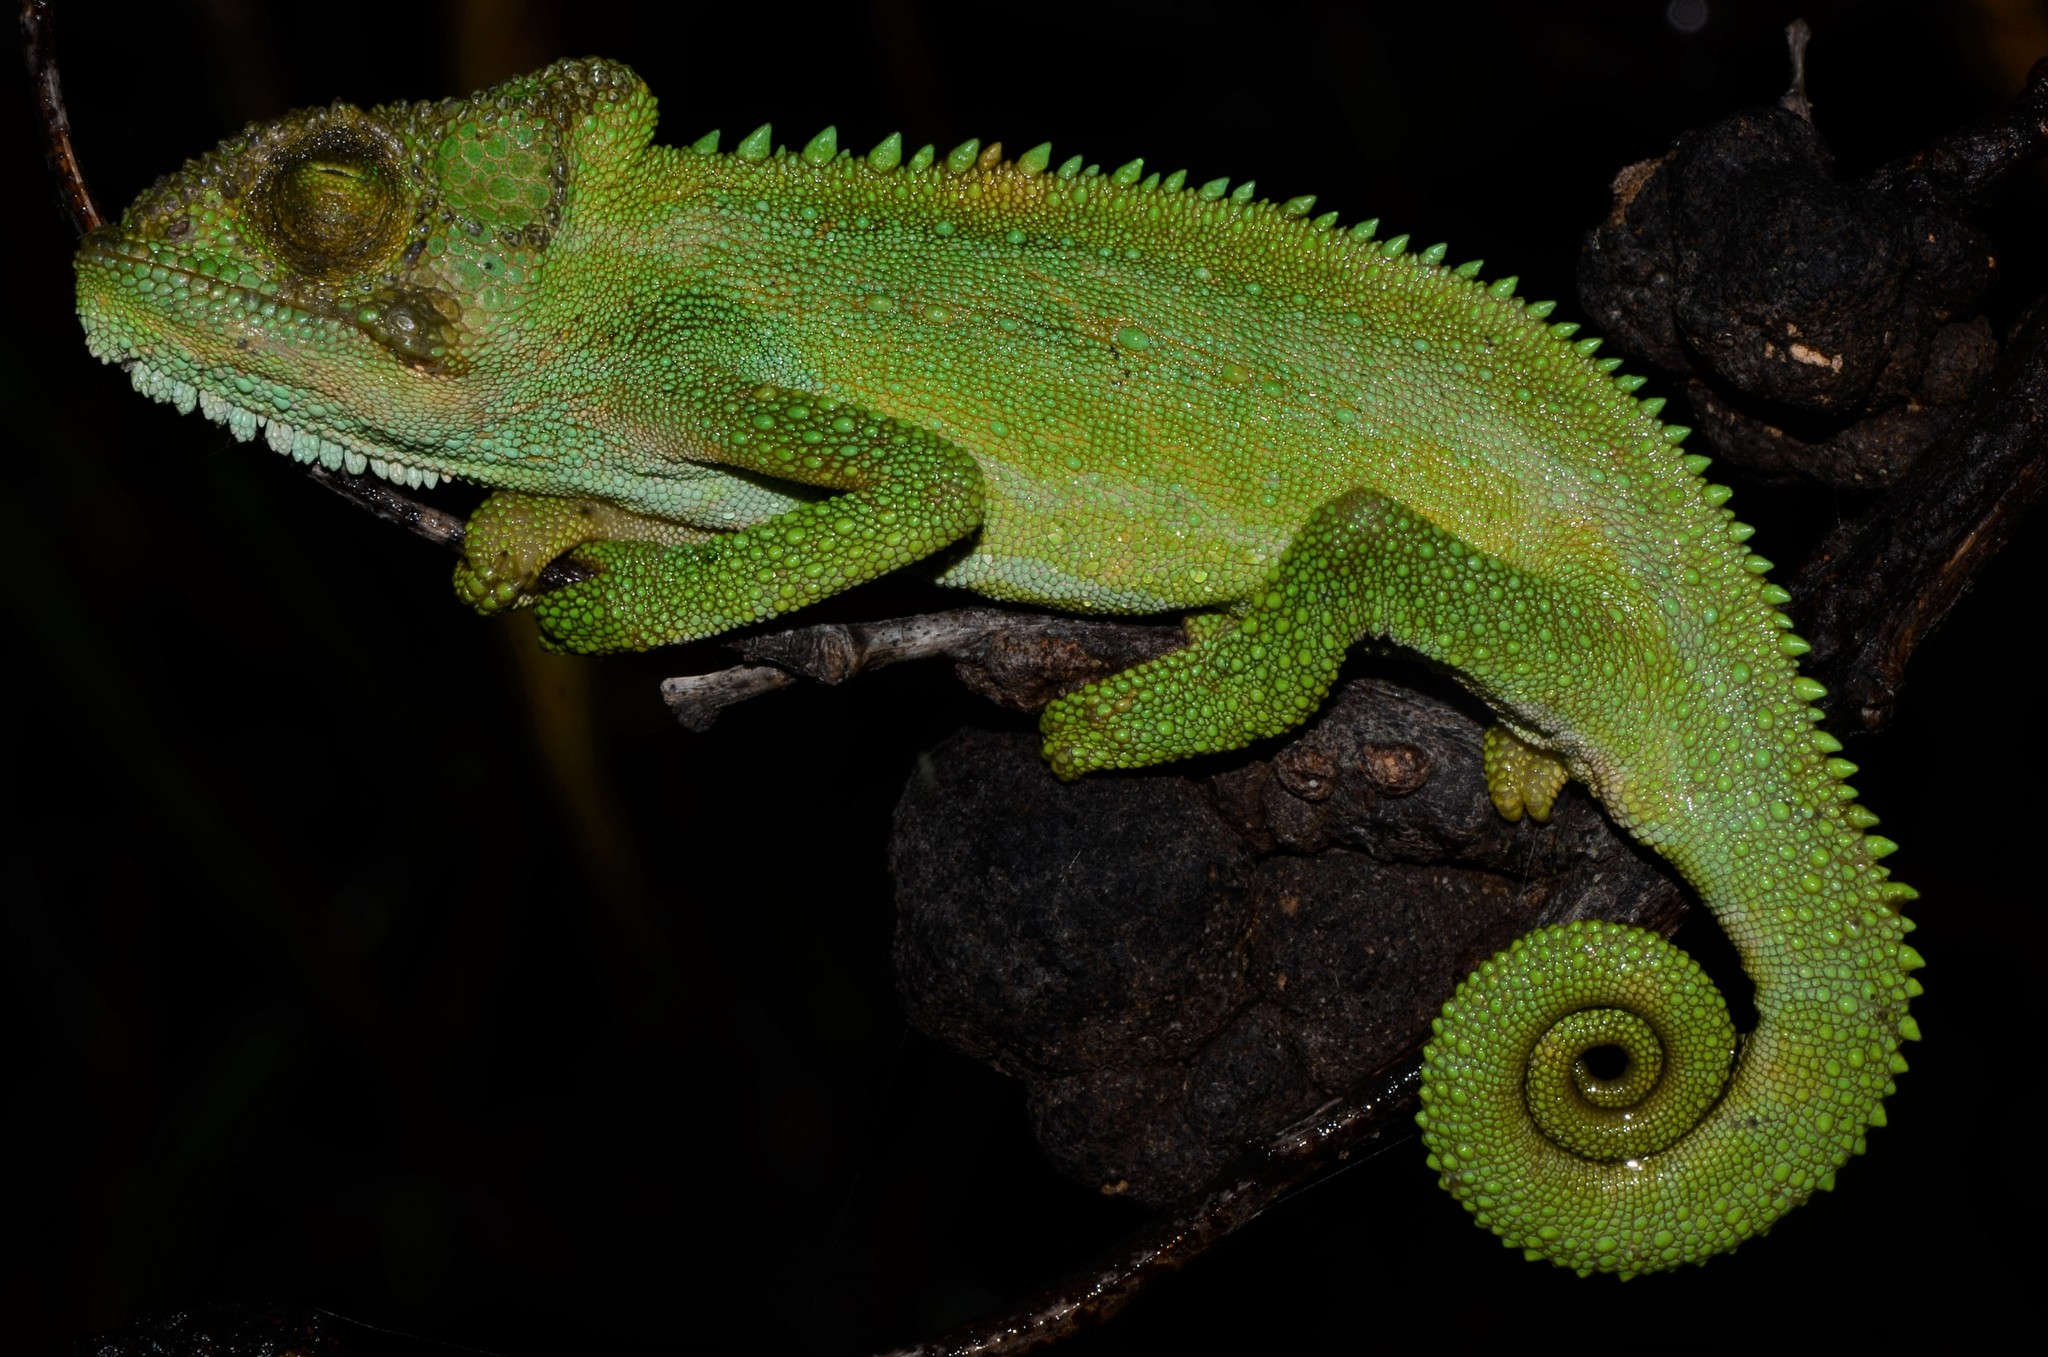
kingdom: Animalia
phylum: Chordata
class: Squamata
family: Chamaeleonidae
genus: Bradypodion
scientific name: Bradypodion pumilum
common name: Cape dwarf chameleon
